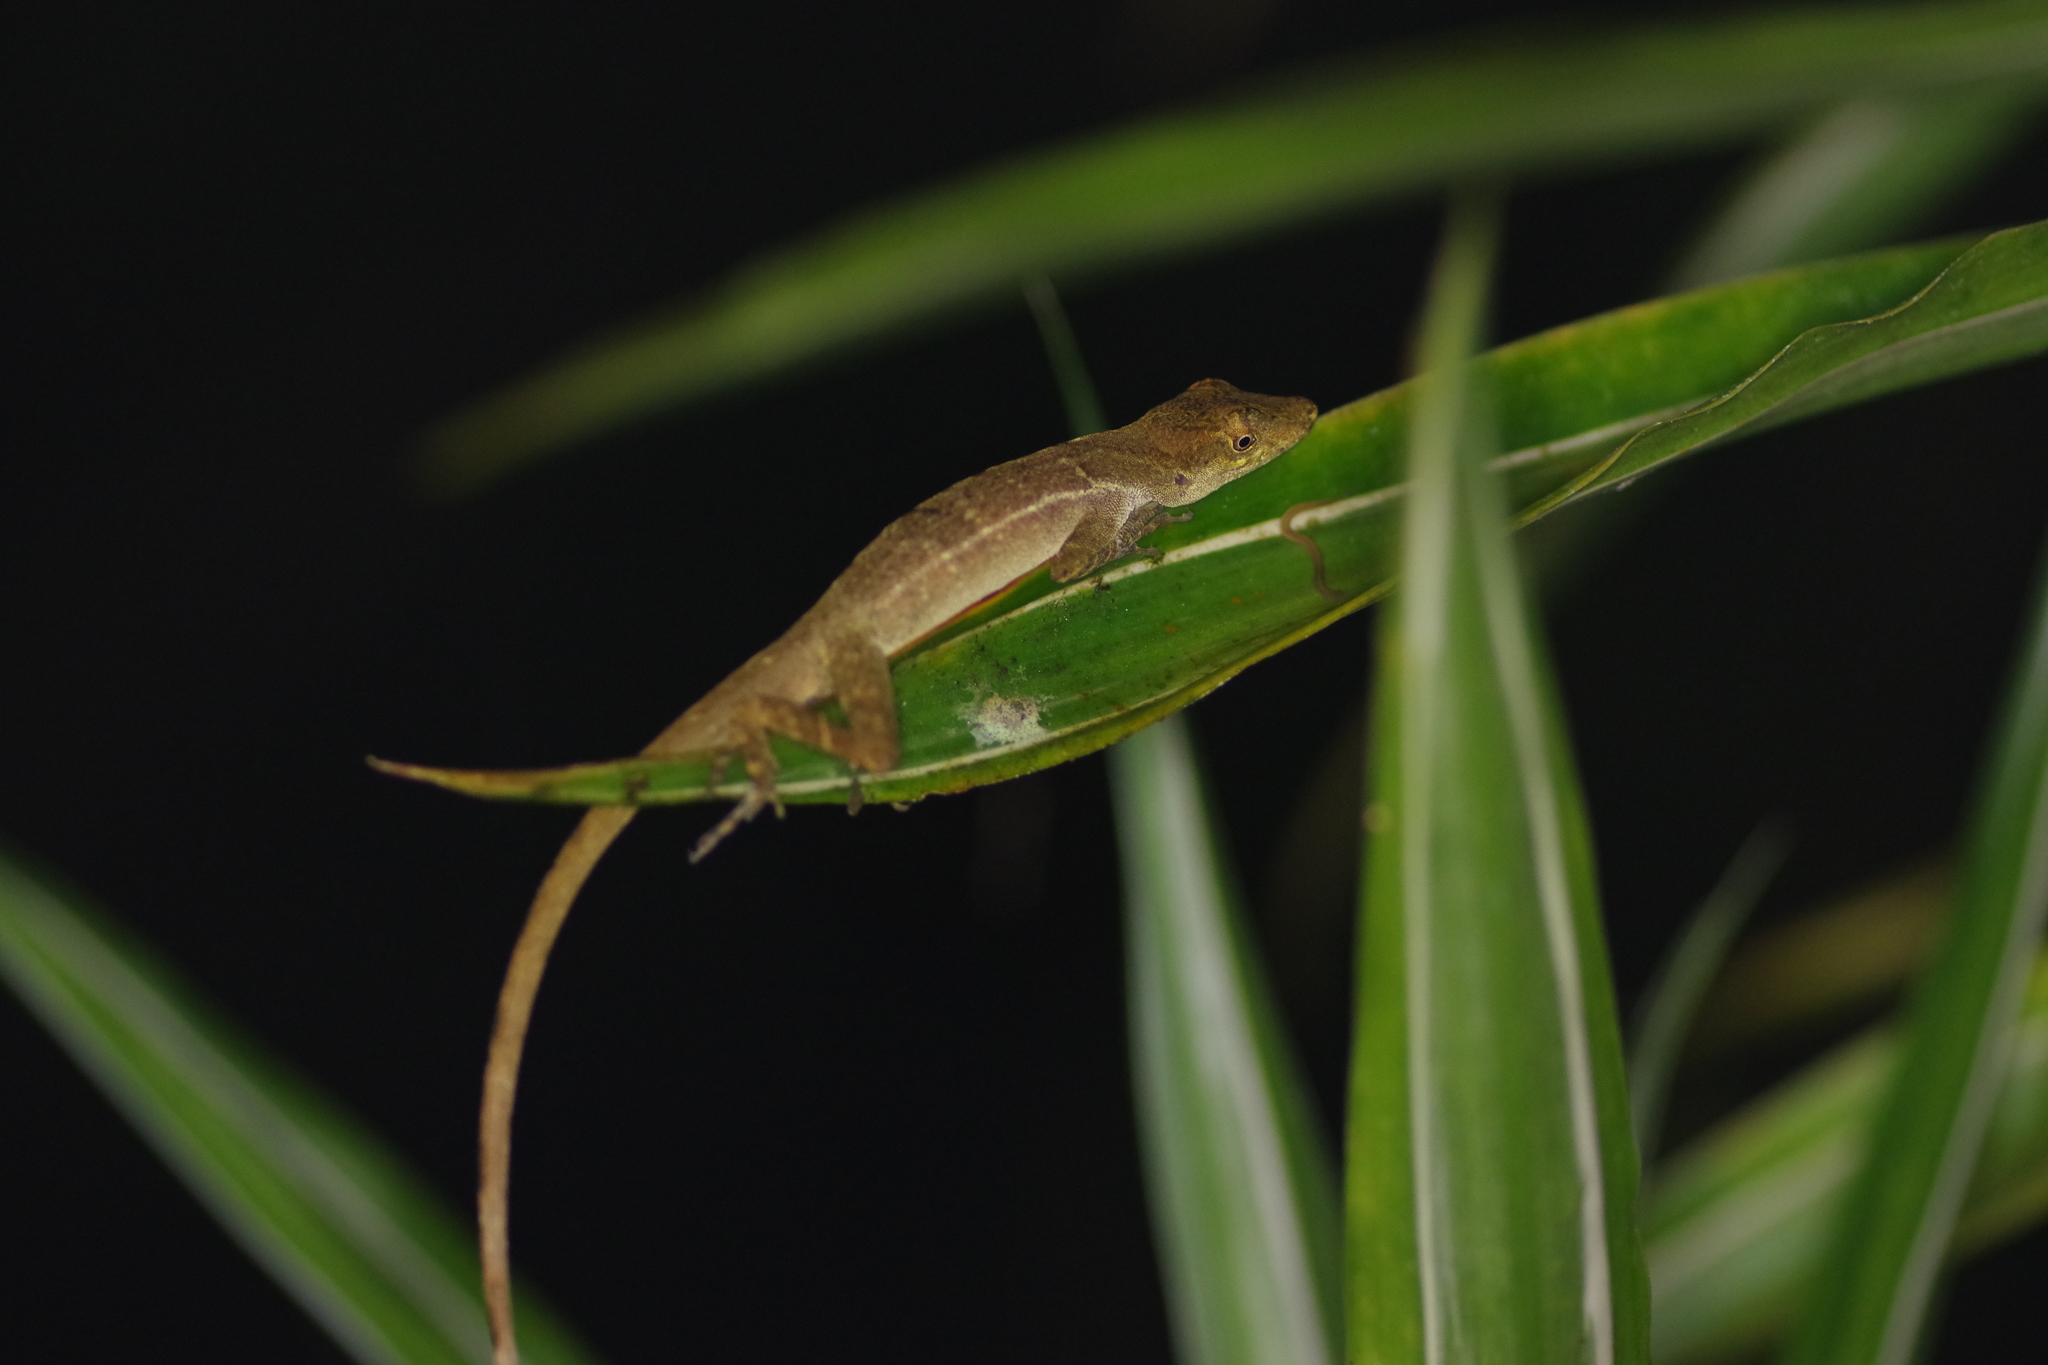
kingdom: Animalia
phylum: Chordata
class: Squamata
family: Dactyloidae
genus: Anolis
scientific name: Anolis polylepis
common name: Many-scaled anole
